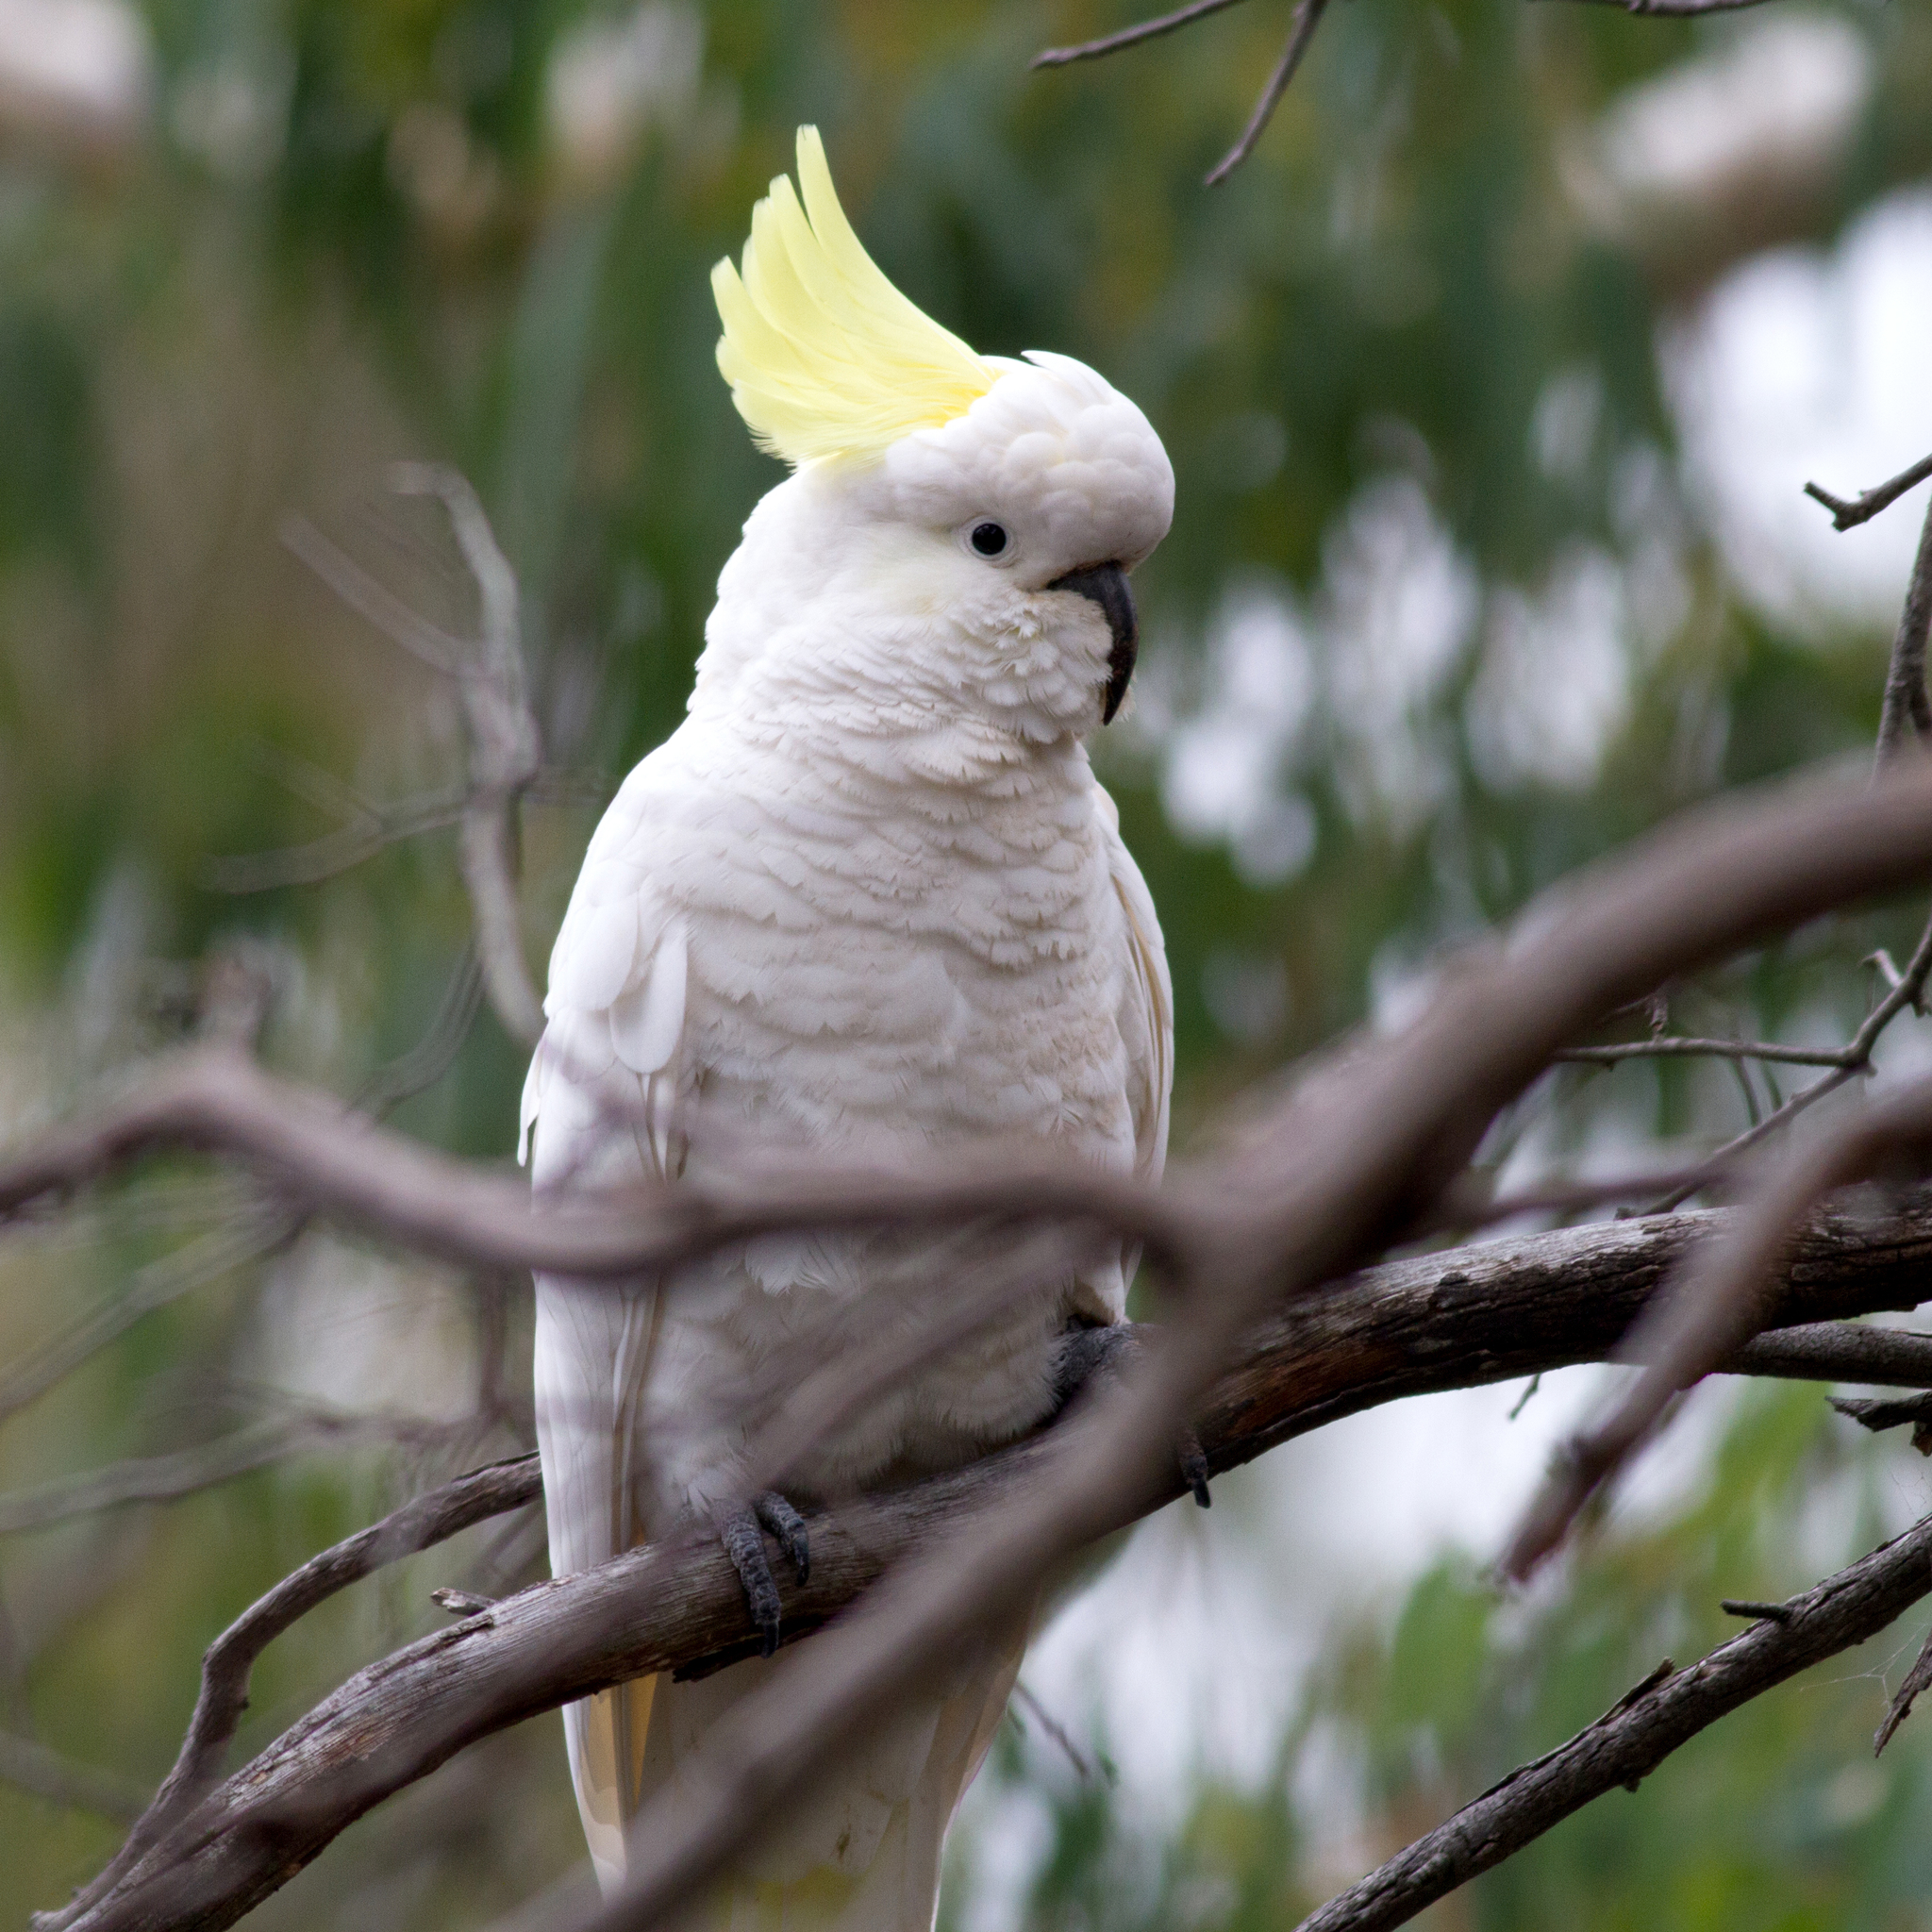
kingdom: Animalia
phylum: Chordata
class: Aves
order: Psittaciformes
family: Psittacidae
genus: Cacatua
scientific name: Cacatua galerita
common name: Sulphur-crested cockatoo
